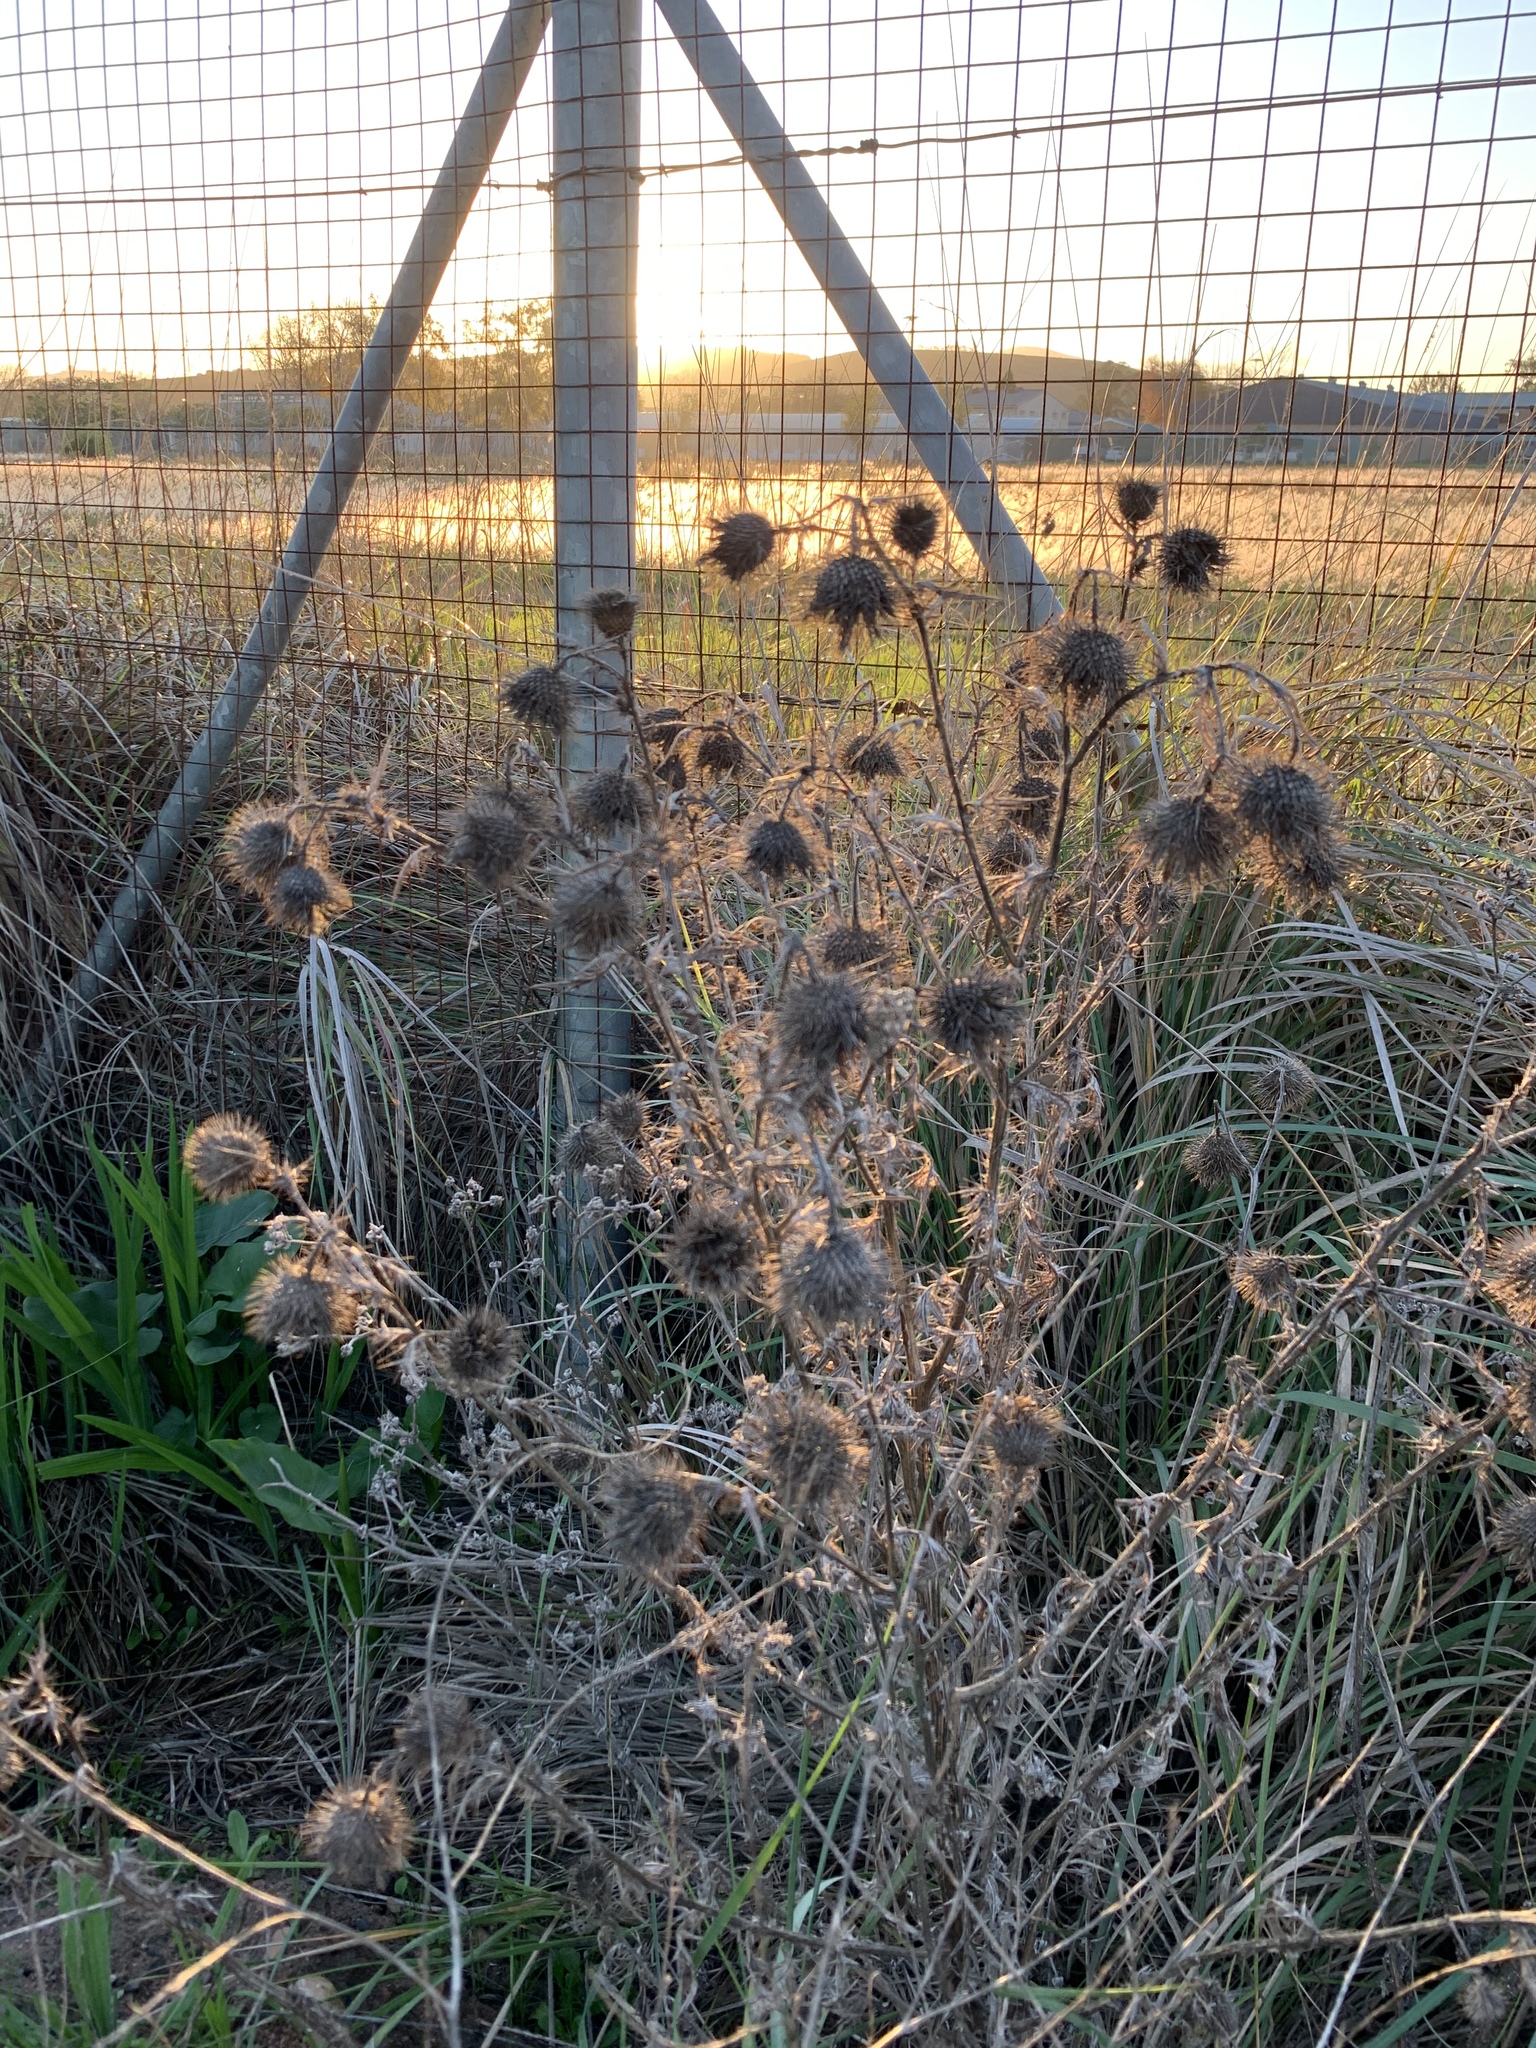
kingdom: Plantae
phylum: Tracheophyta
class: Magnoliopsida
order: Asterales
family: Asteraceae
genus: Cirsium
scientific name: Cirsium vulgare
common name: Bull thistle
